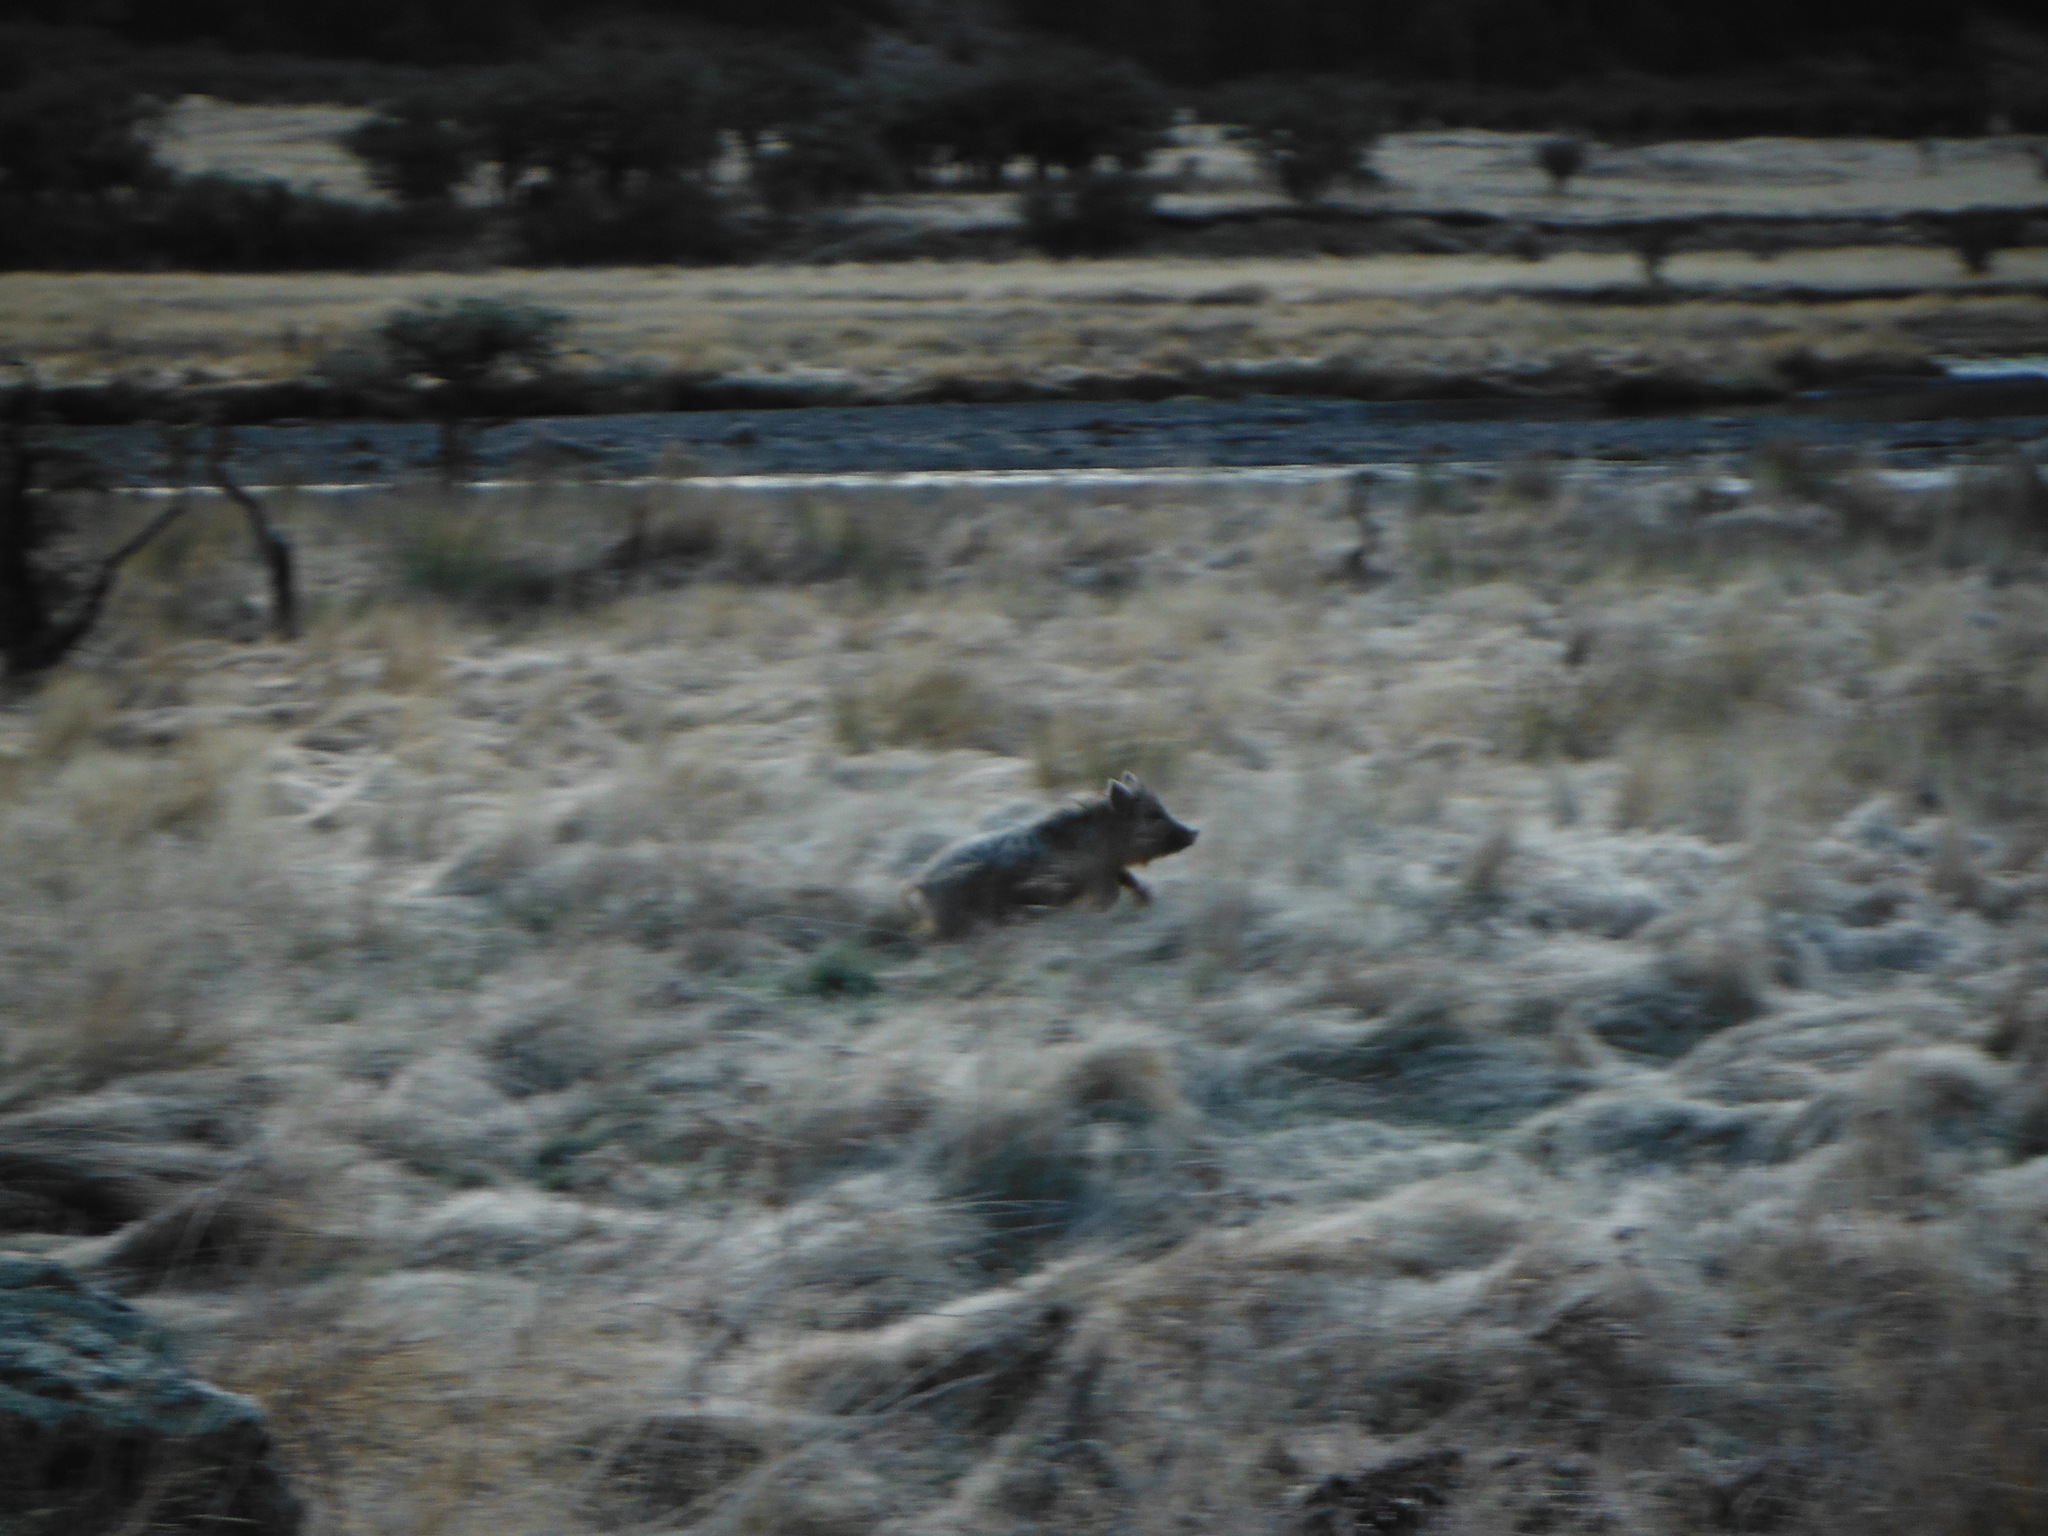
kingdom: Animalia
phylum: Chordata
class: Mammalia
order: Artiodactyla
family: Suidae
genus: Sus
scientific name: Sus scrofa
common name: Wild boar
